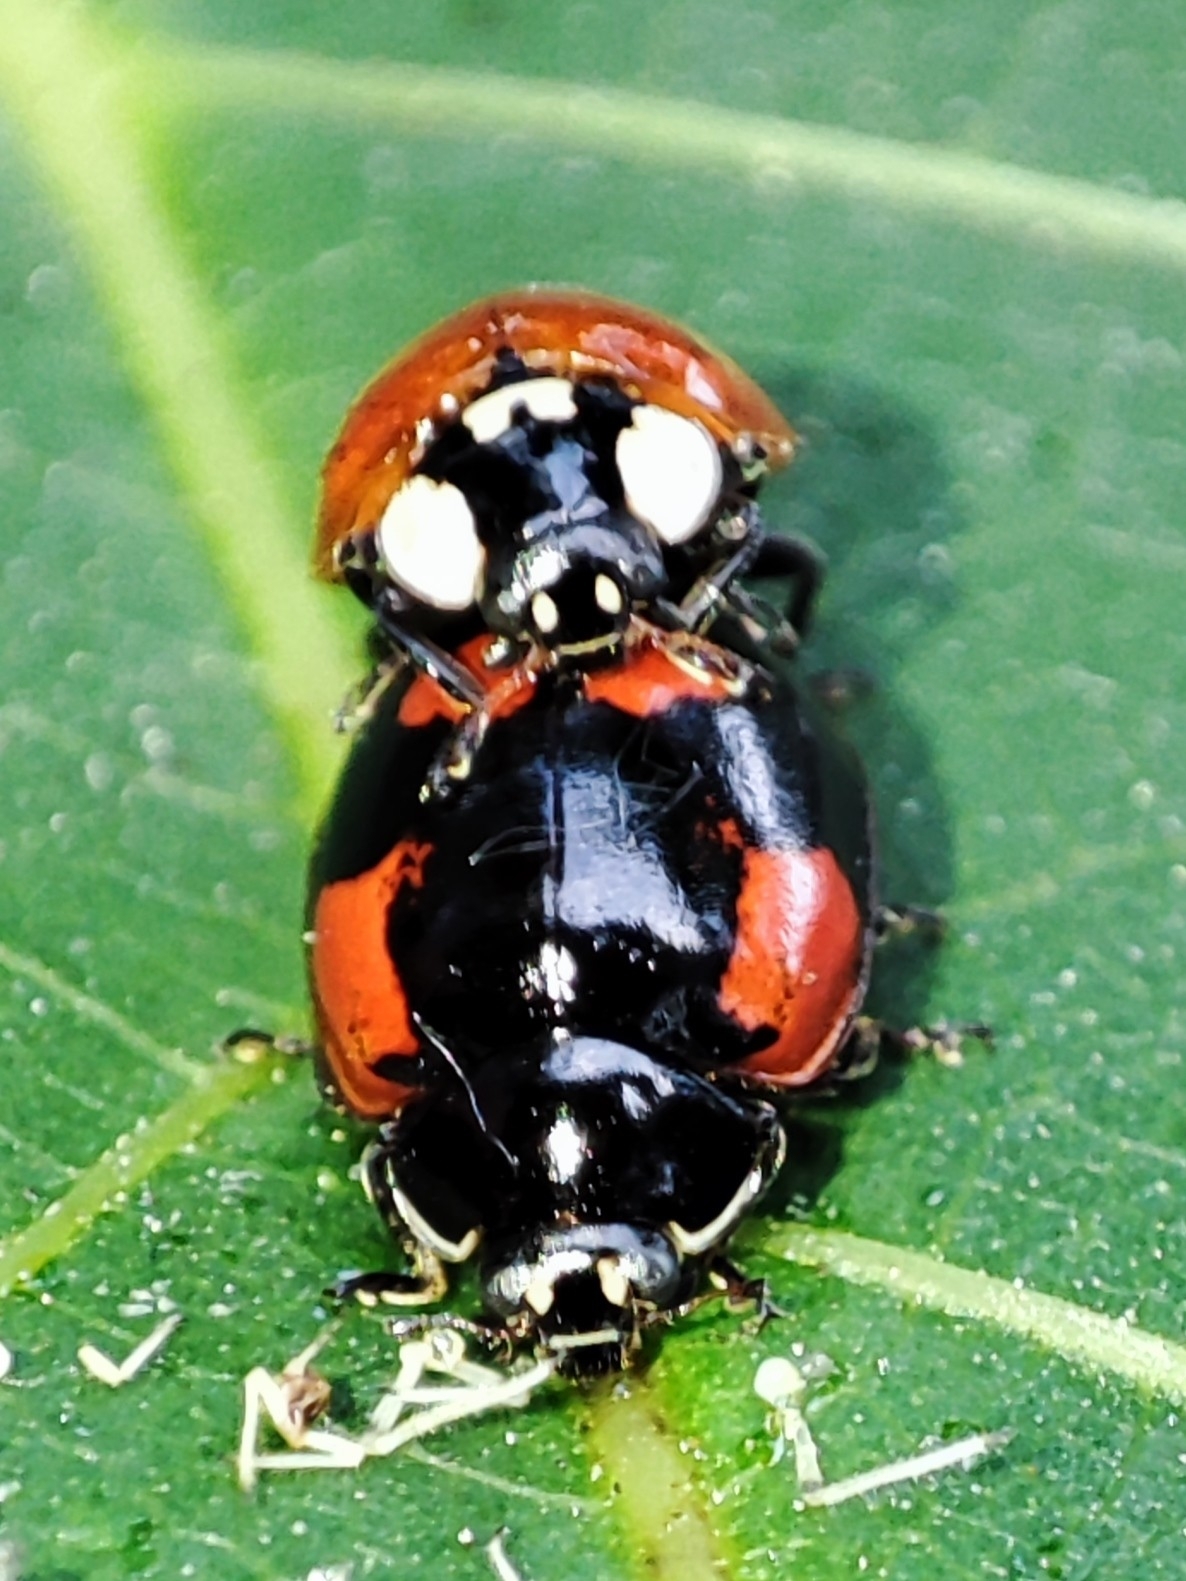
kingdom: Animalia
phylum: Arthropoda
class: Insecta
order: Coleoptera
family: Coccinellidae
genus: Adalia
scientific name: Adalia bipunctata
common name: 2-spot ladybird
